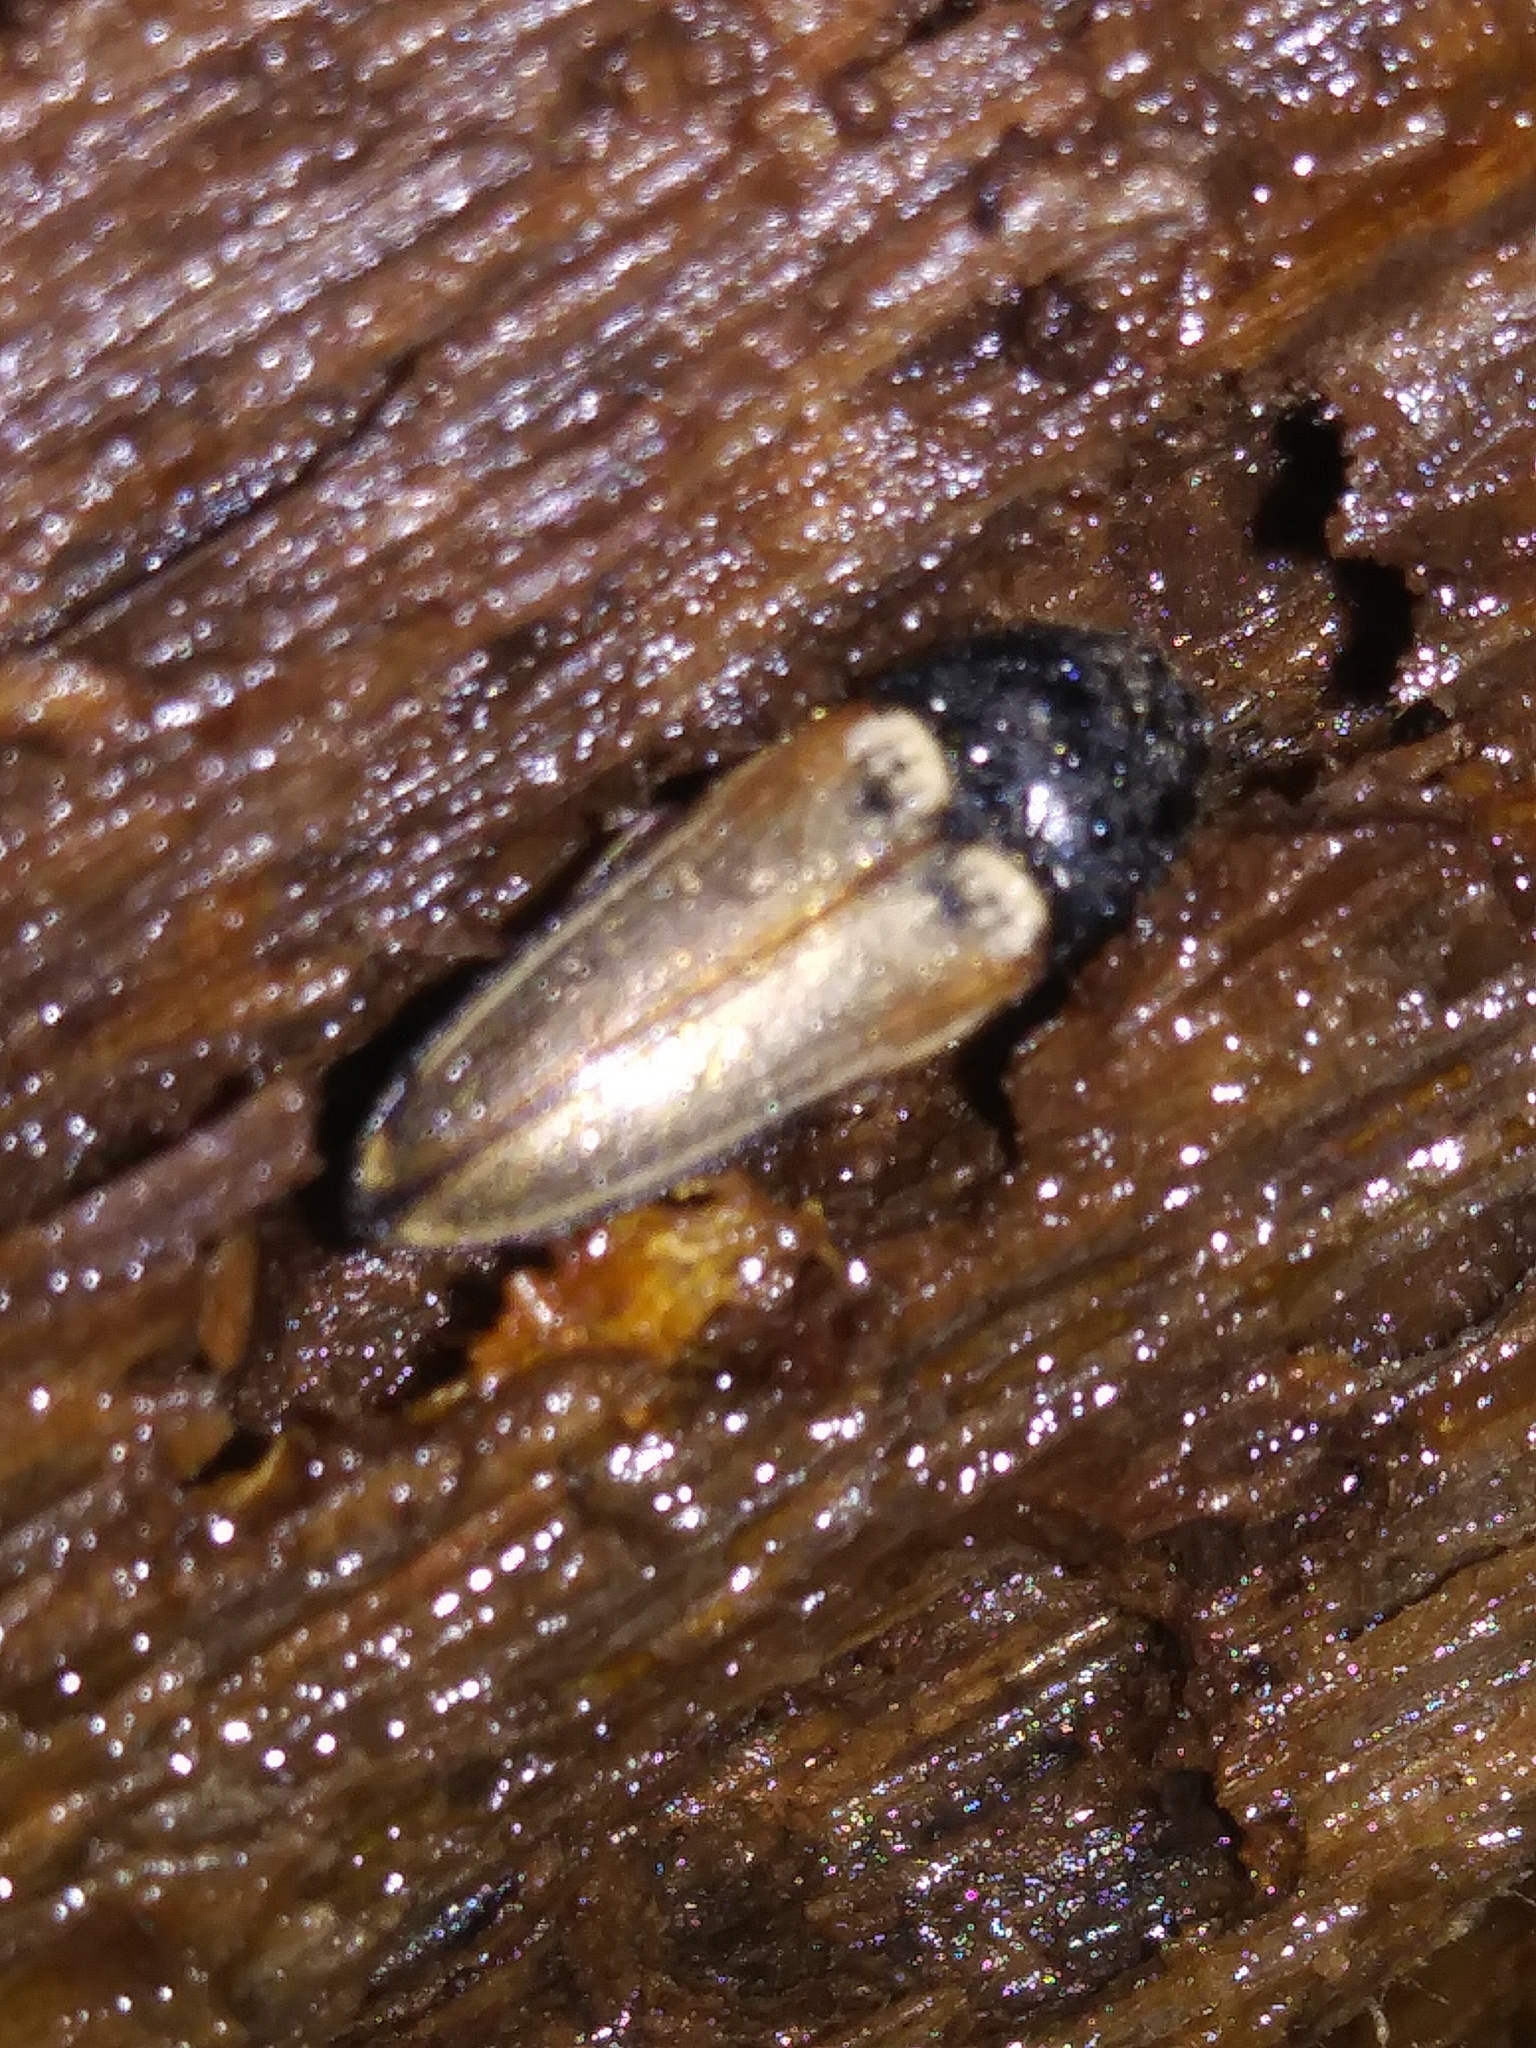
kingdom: Animalia
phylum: Arthropoda
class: Insecta
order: Coleoptera
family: Elateridae
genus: Ampedus
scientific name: Ampedus nigricollis
